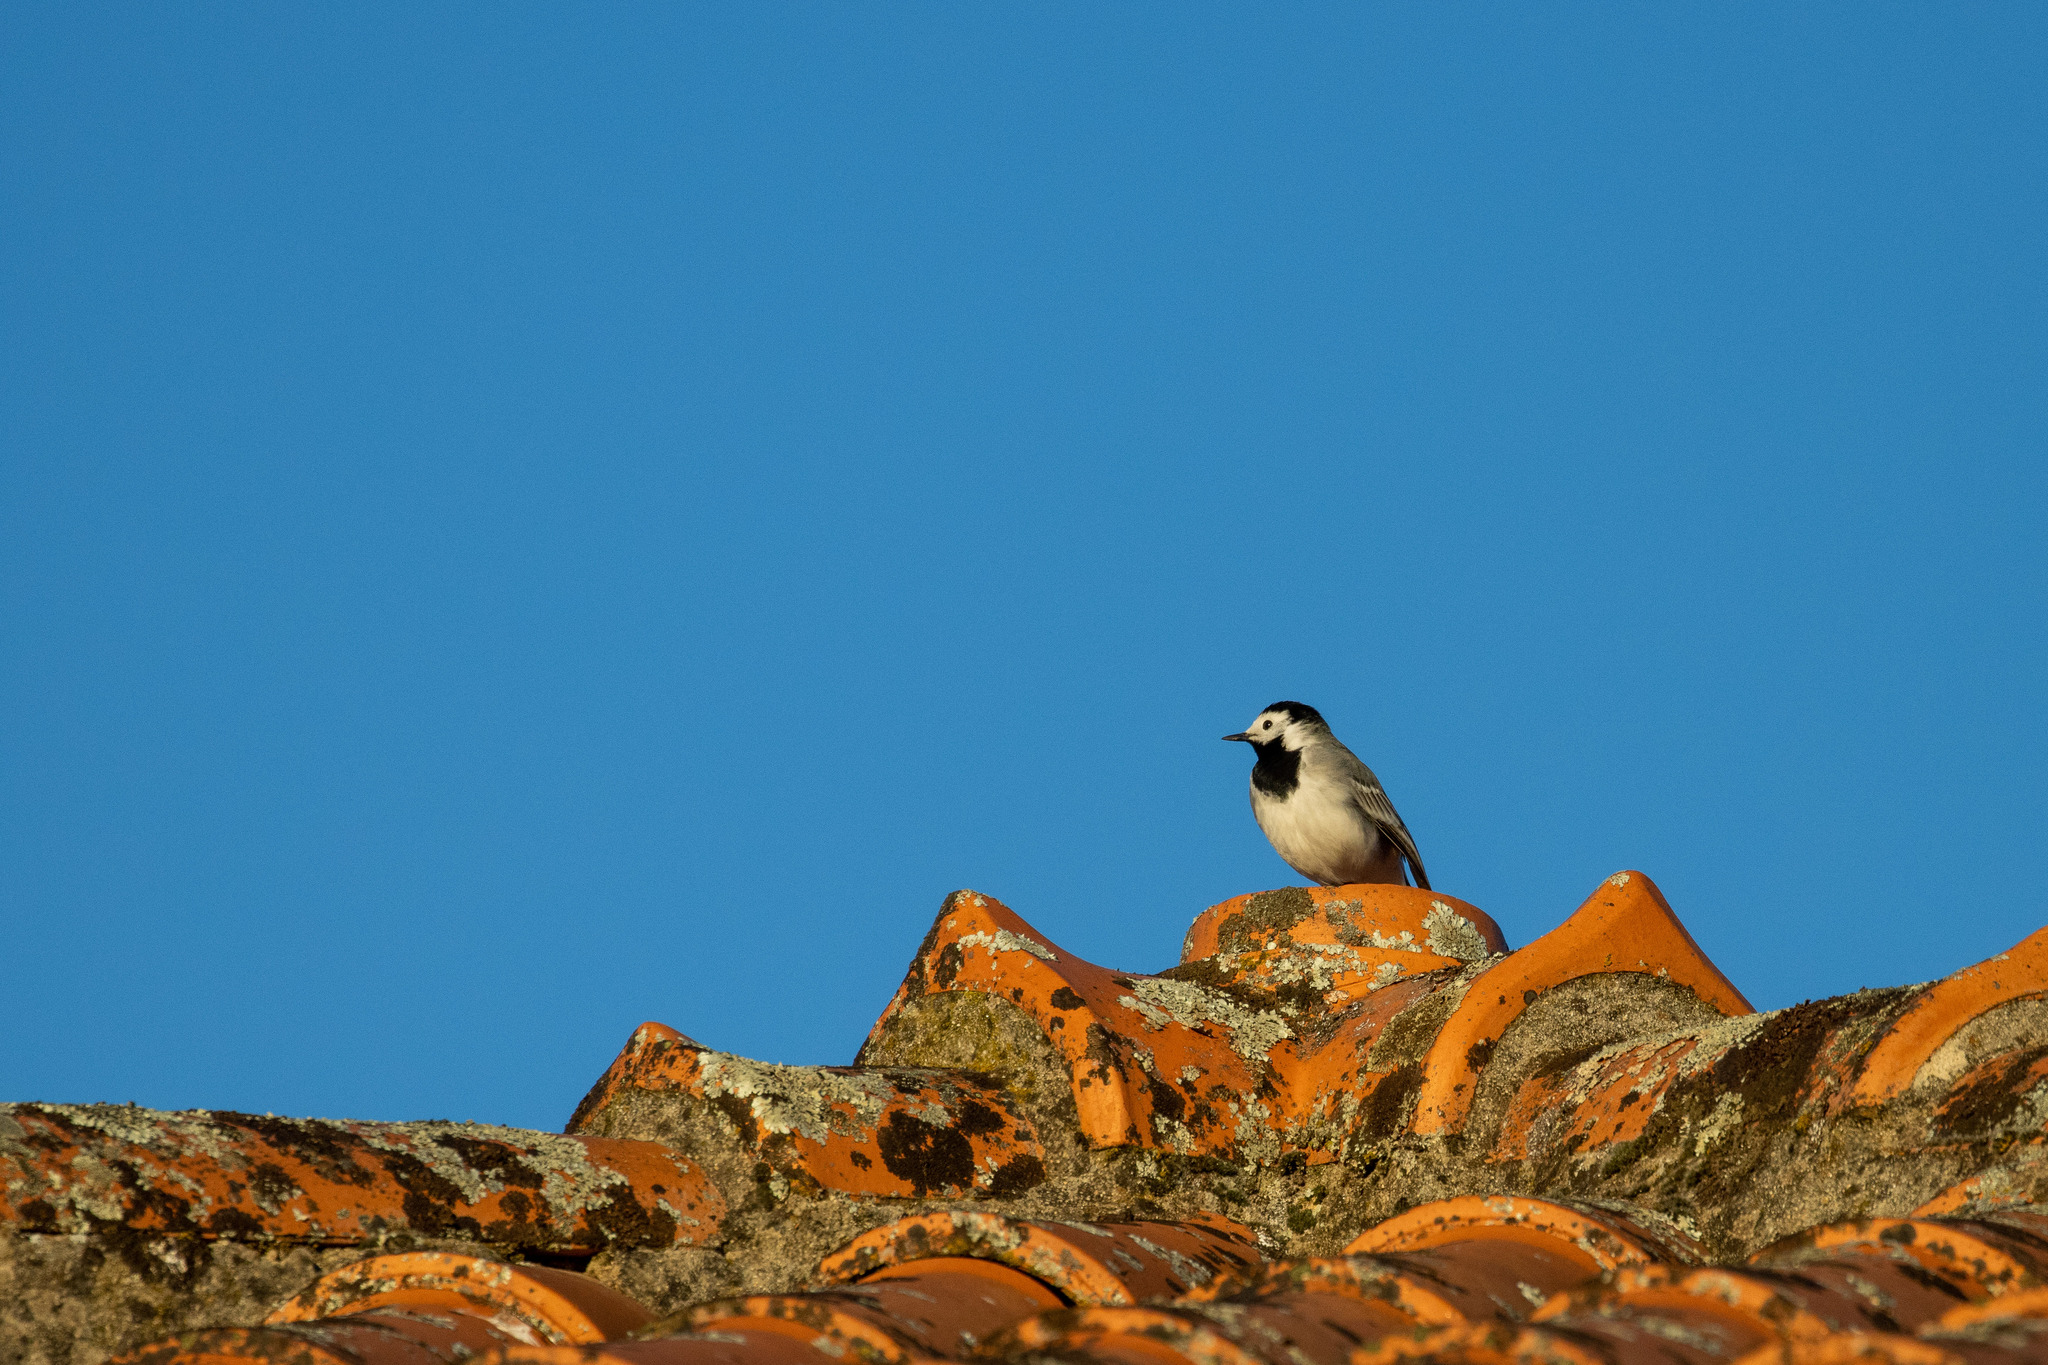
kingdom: Animalia
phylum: Chordata
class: Aves
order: Passeriformes
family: Motacillidae
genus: Motacilla
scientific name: Motacilla alba
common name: White wagtail
